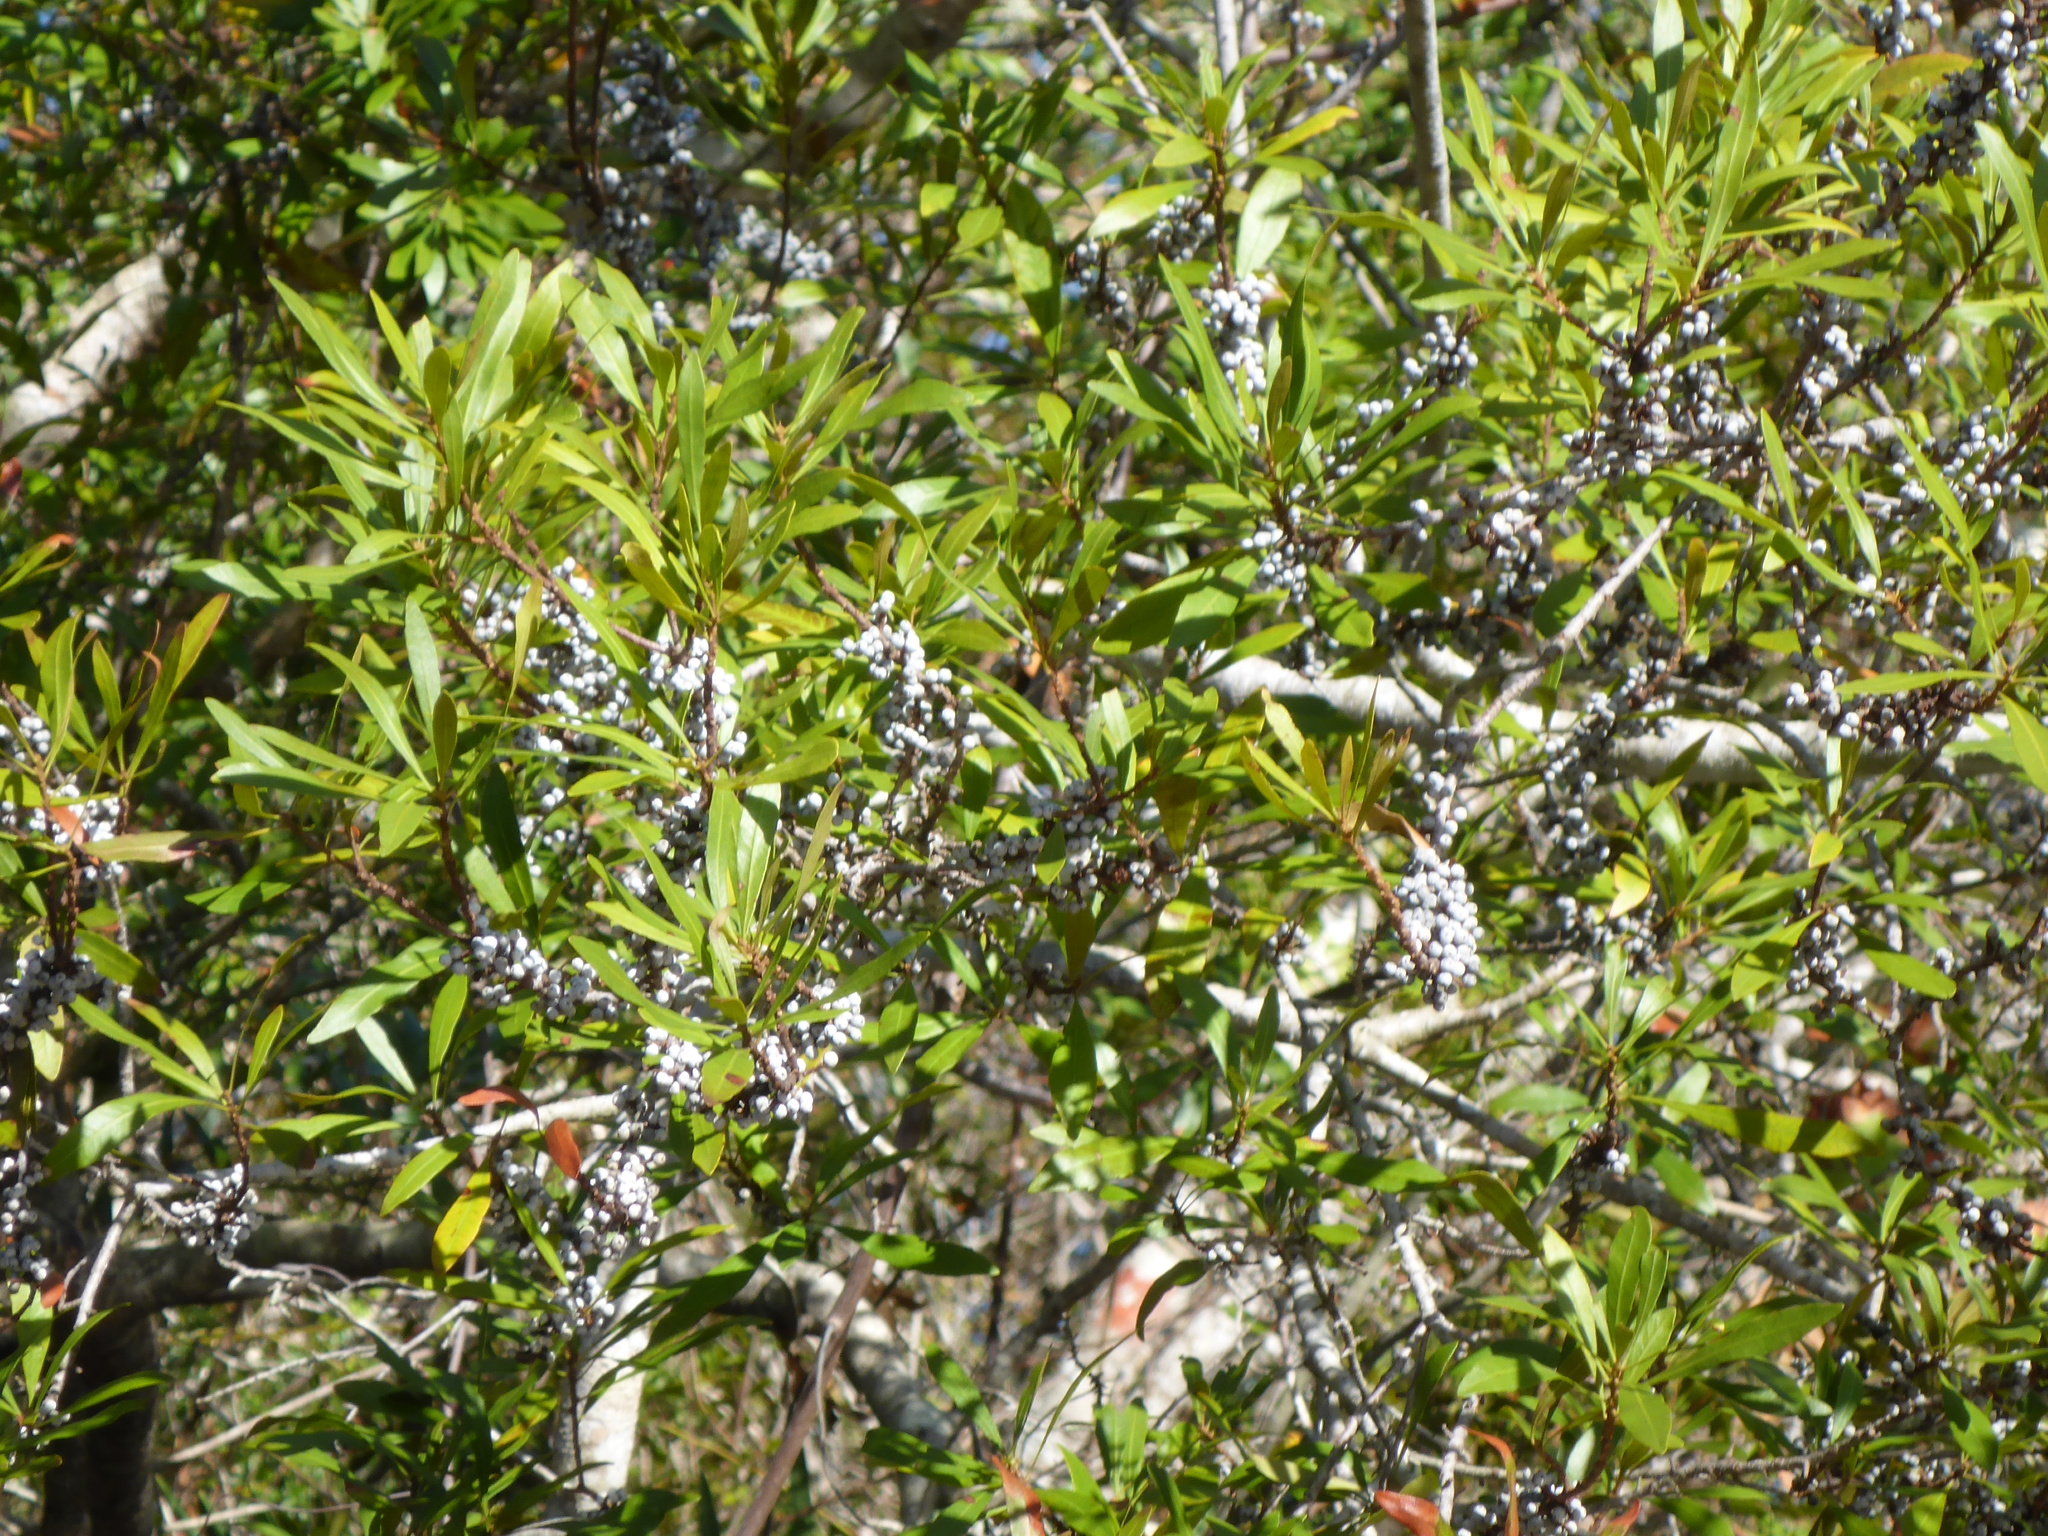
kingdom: Plantae
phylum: Tracheophyta
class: Magnoliopsida
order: Fagales
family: Myricaceae
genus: Morella
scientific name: Morella cerifera
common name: Wax myrtle
